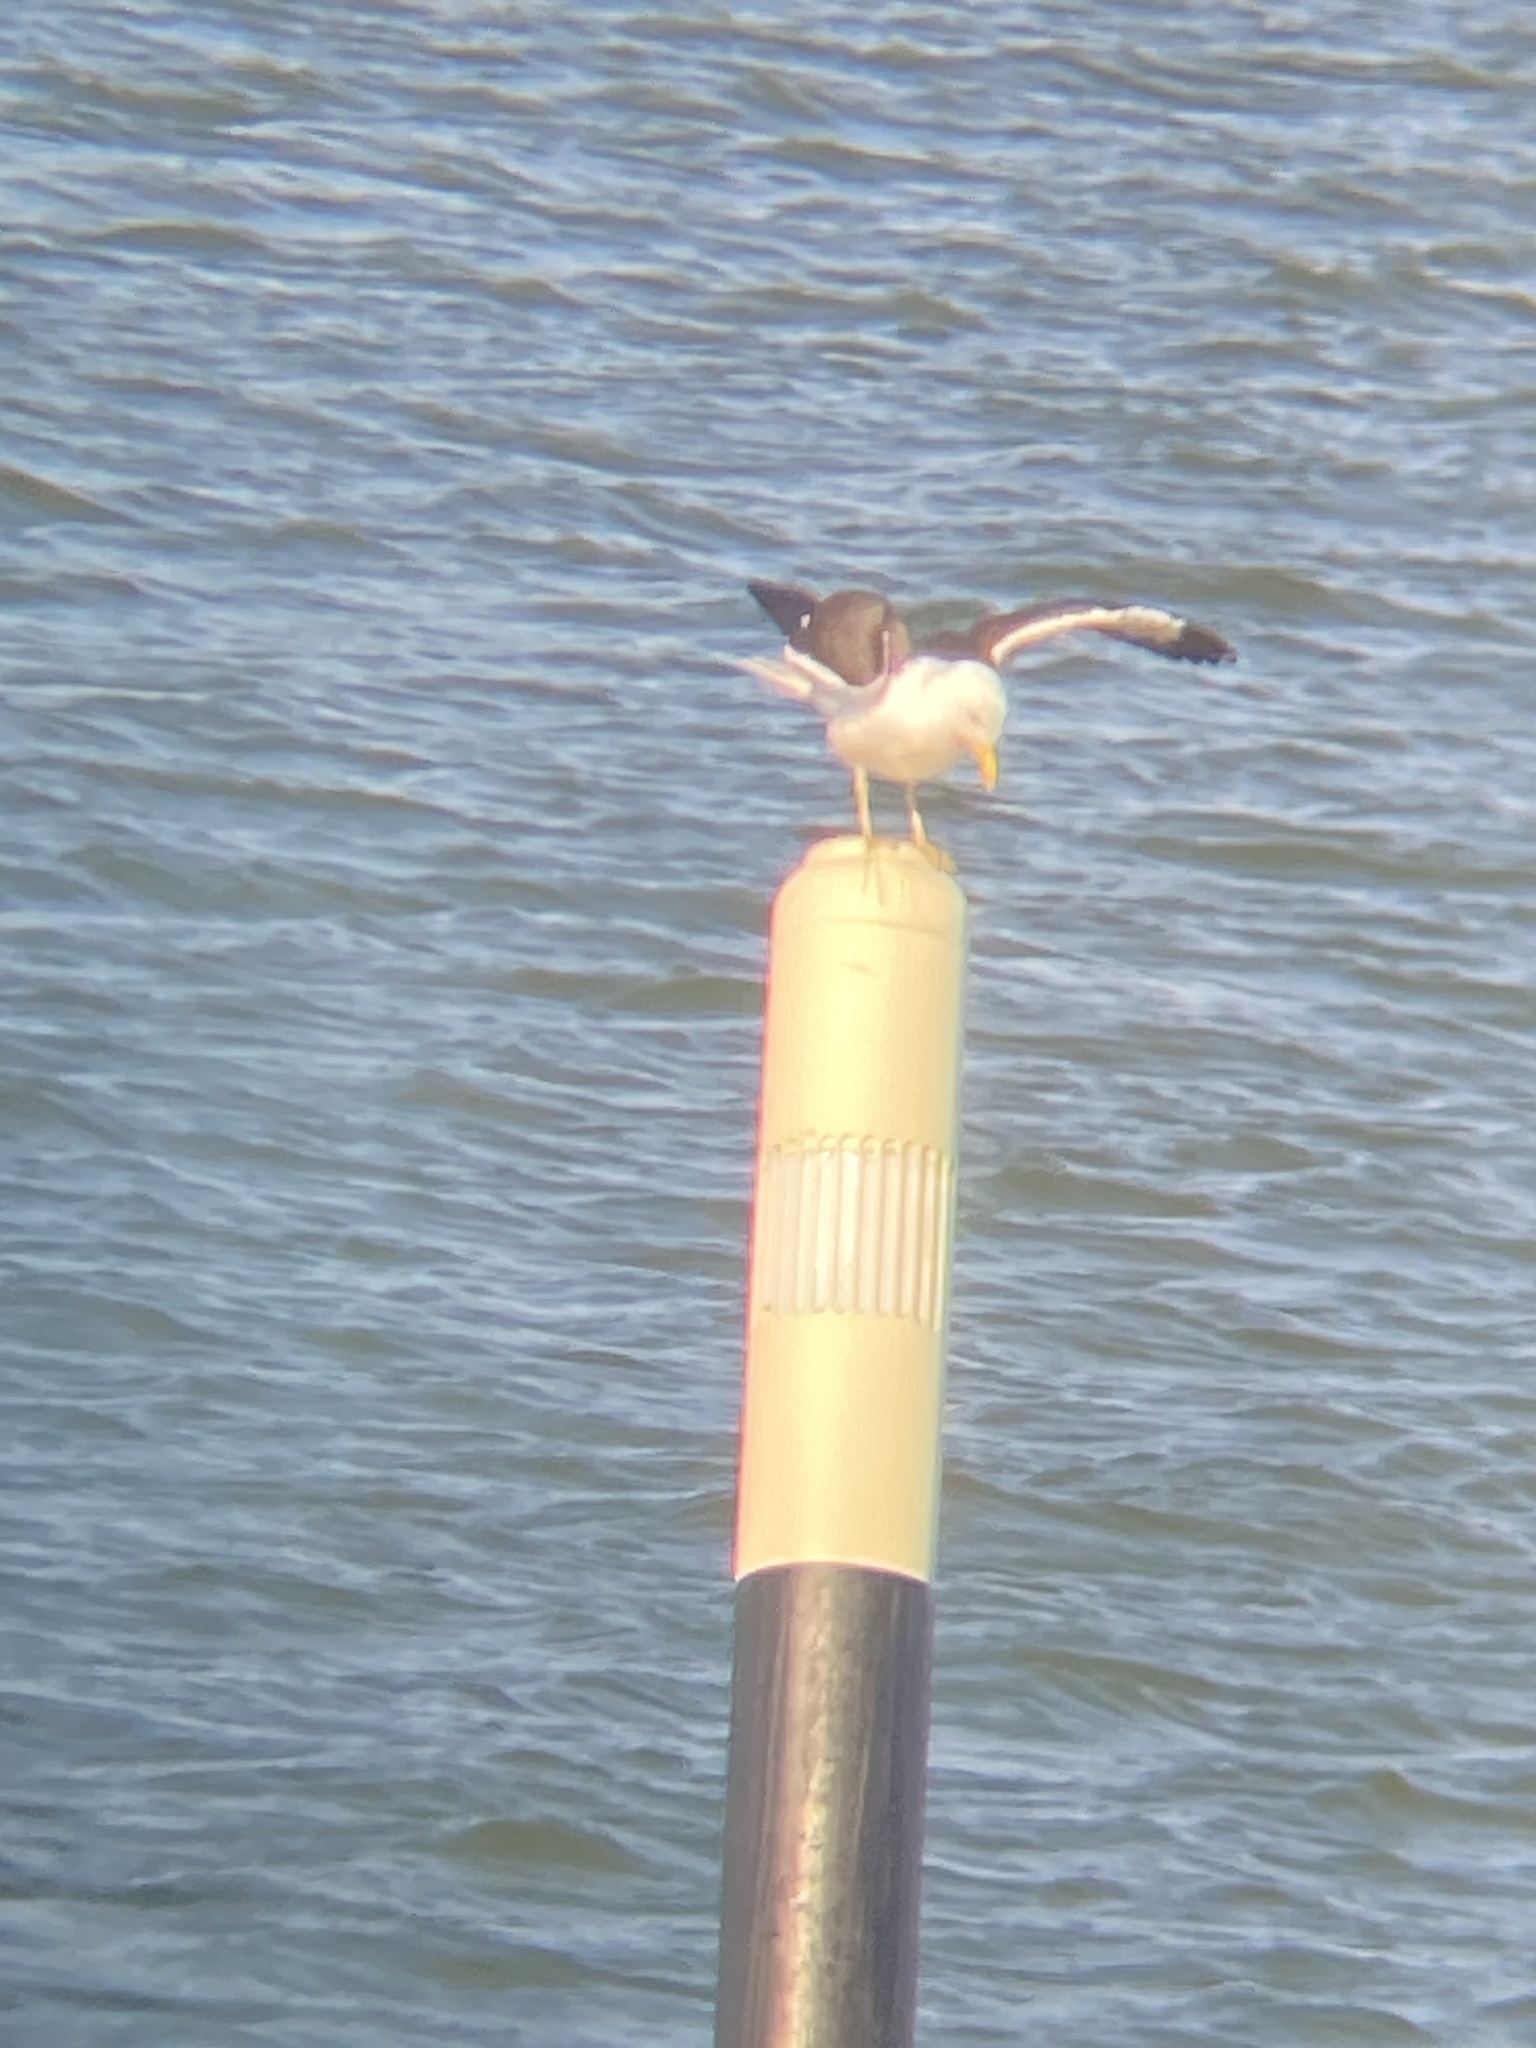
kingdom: Animalia
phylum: Chordata
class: Aves
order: Charadriiformes
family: Laridae
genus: Larus
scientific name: Larus fuscus
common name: Lesser black-backed gull
